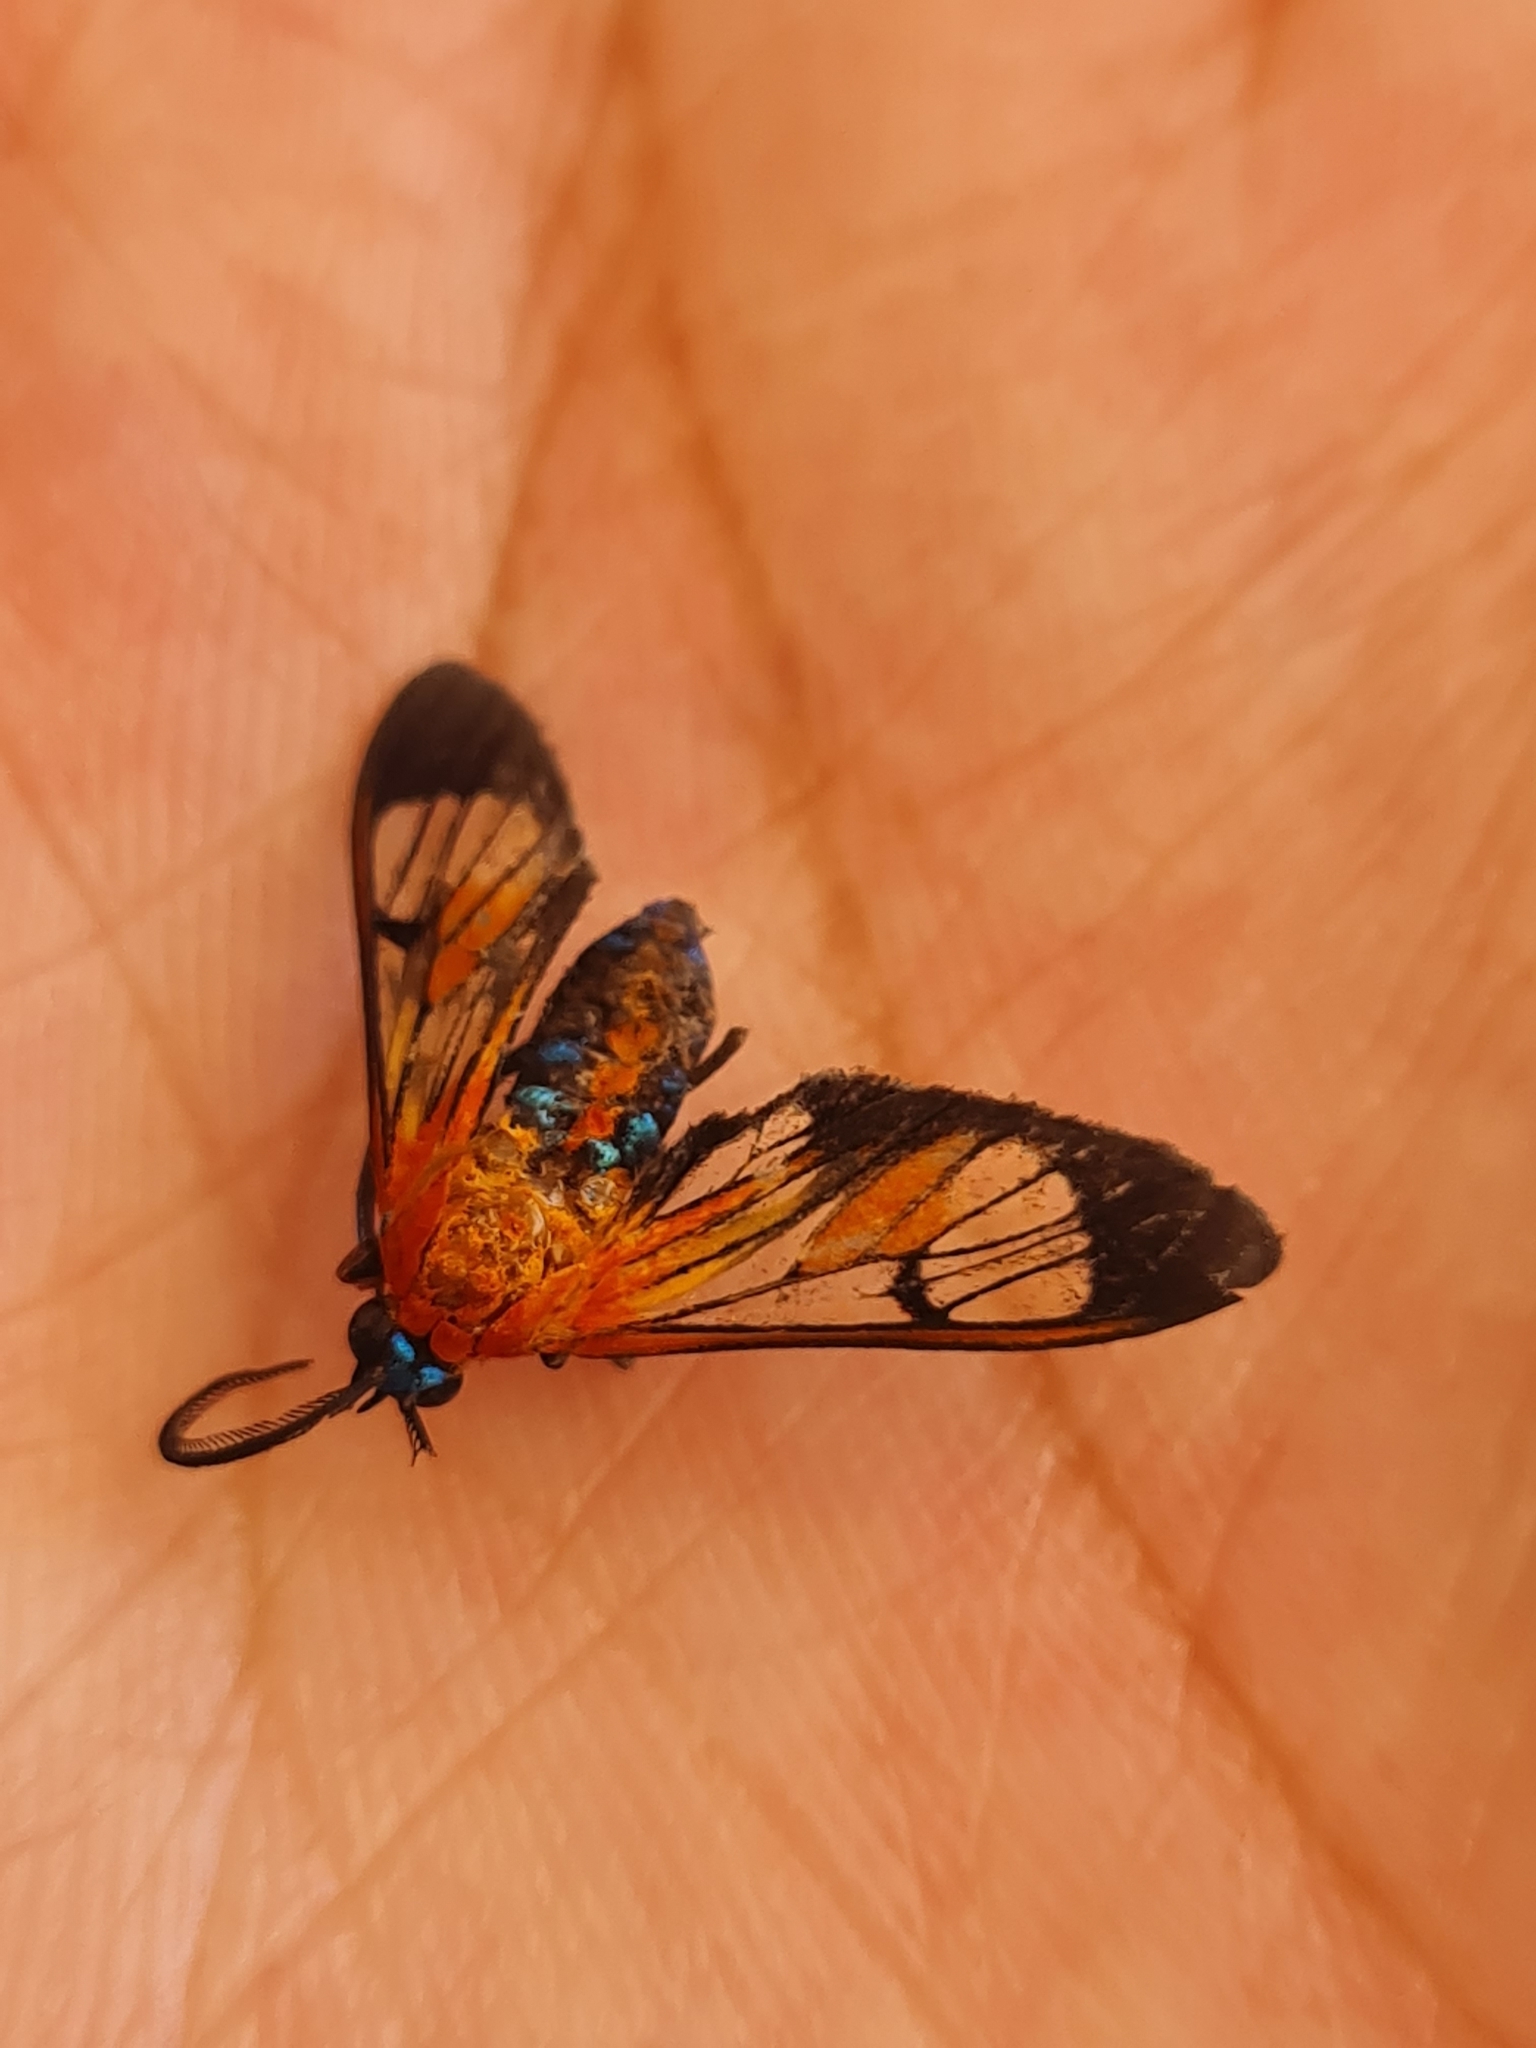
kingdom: Animalia
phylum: Arthropoda
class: Insecta
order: Lepidoptera
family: Erebidae
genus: Cosmosoma
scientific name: Cosmosoma achemon
